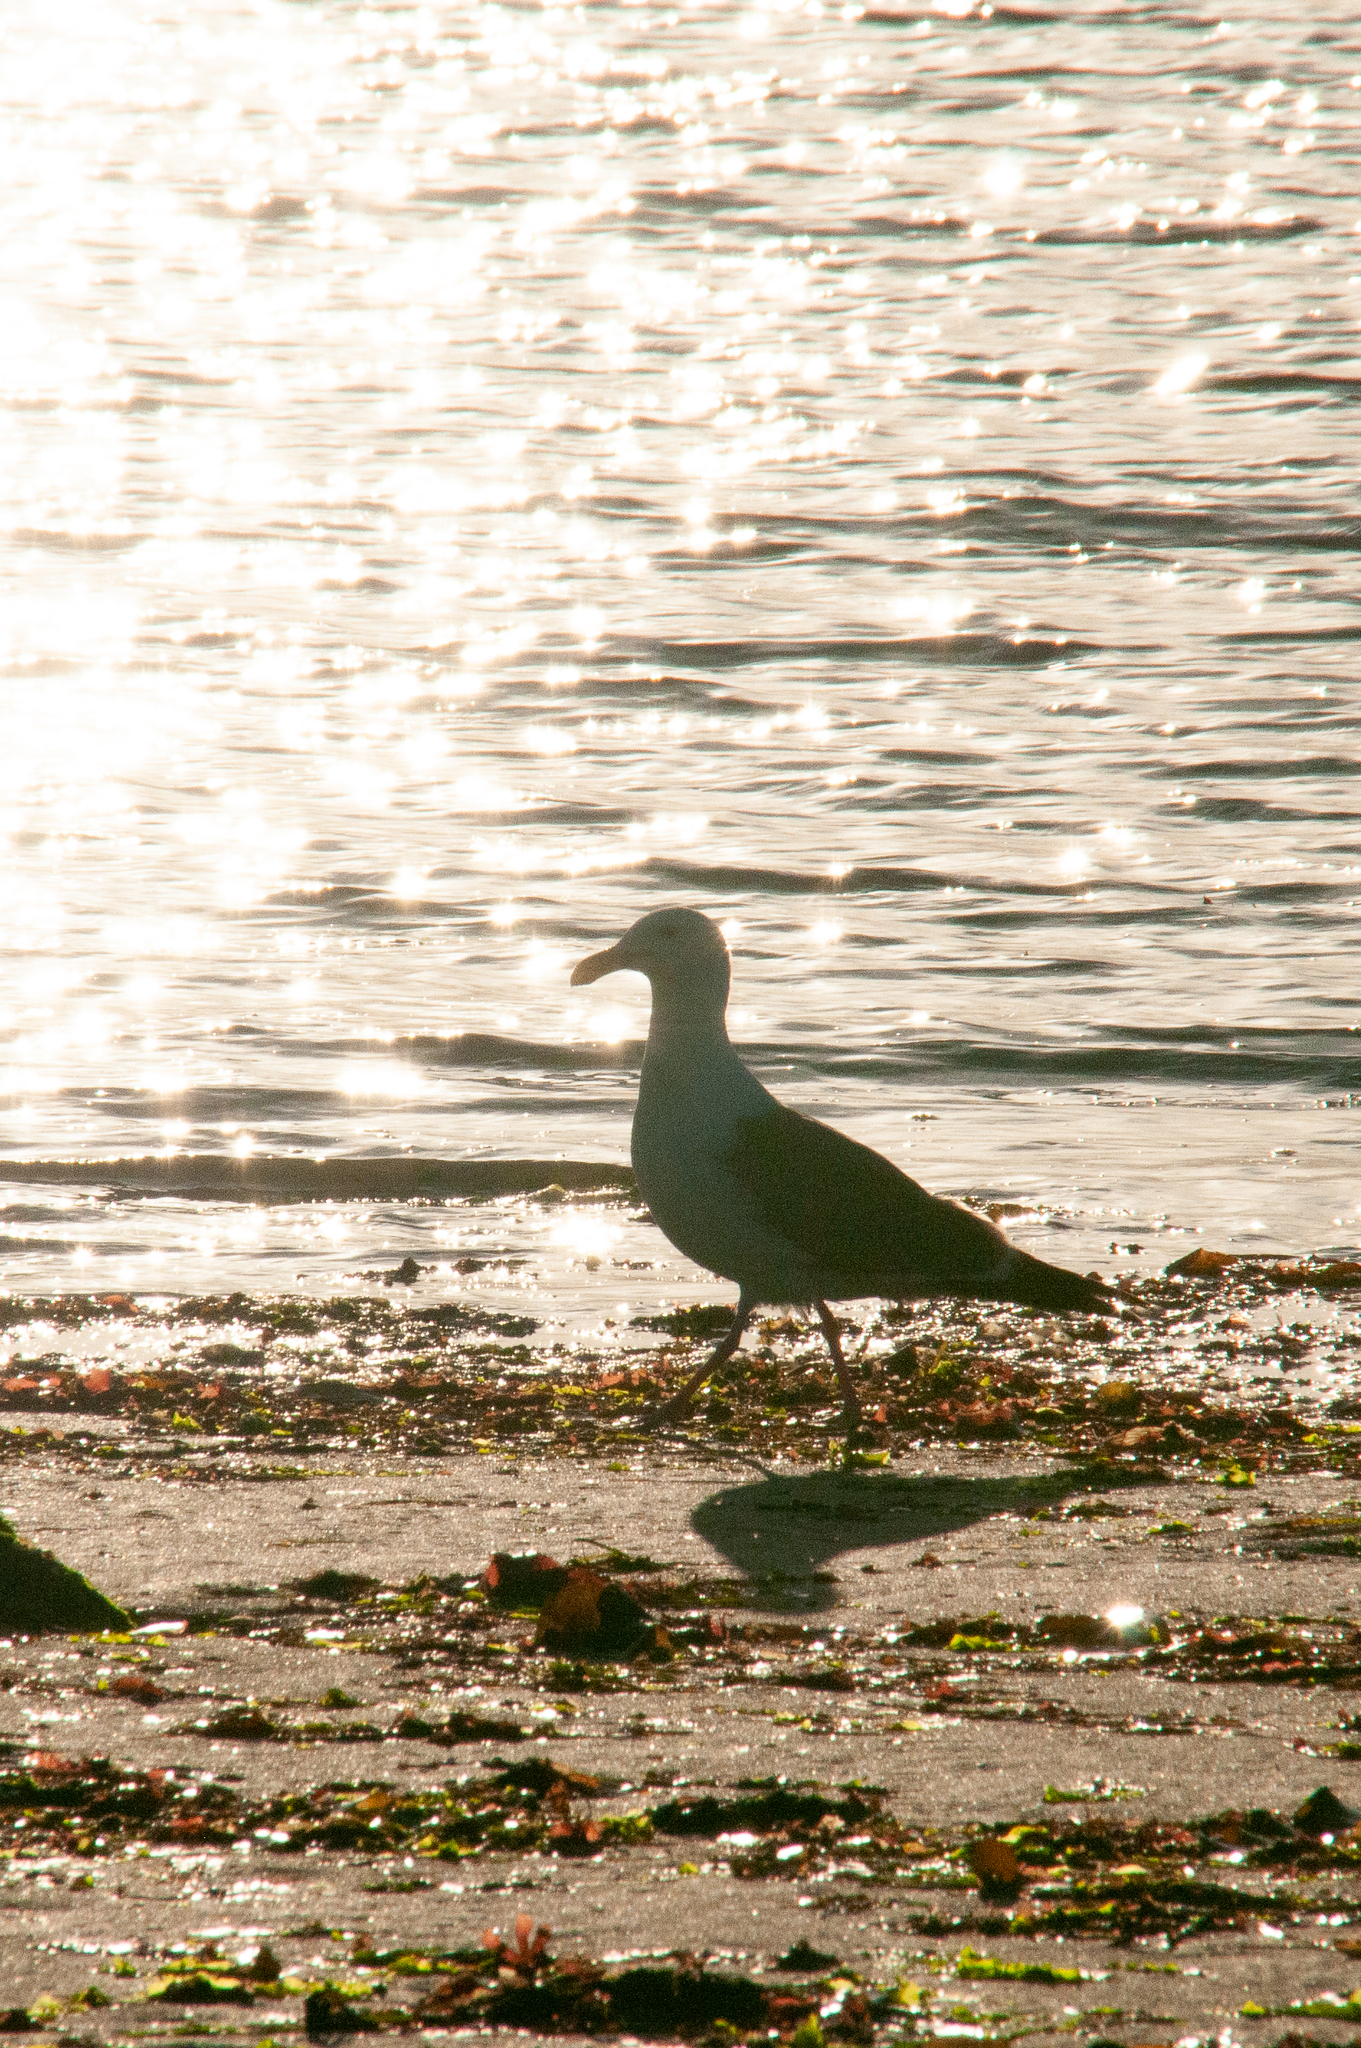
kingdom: Animalia
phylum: Chordata
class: Aves
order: Charadriiformes
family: Laridae
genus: Larus
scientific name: Larus occidentalis
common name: Western gull
